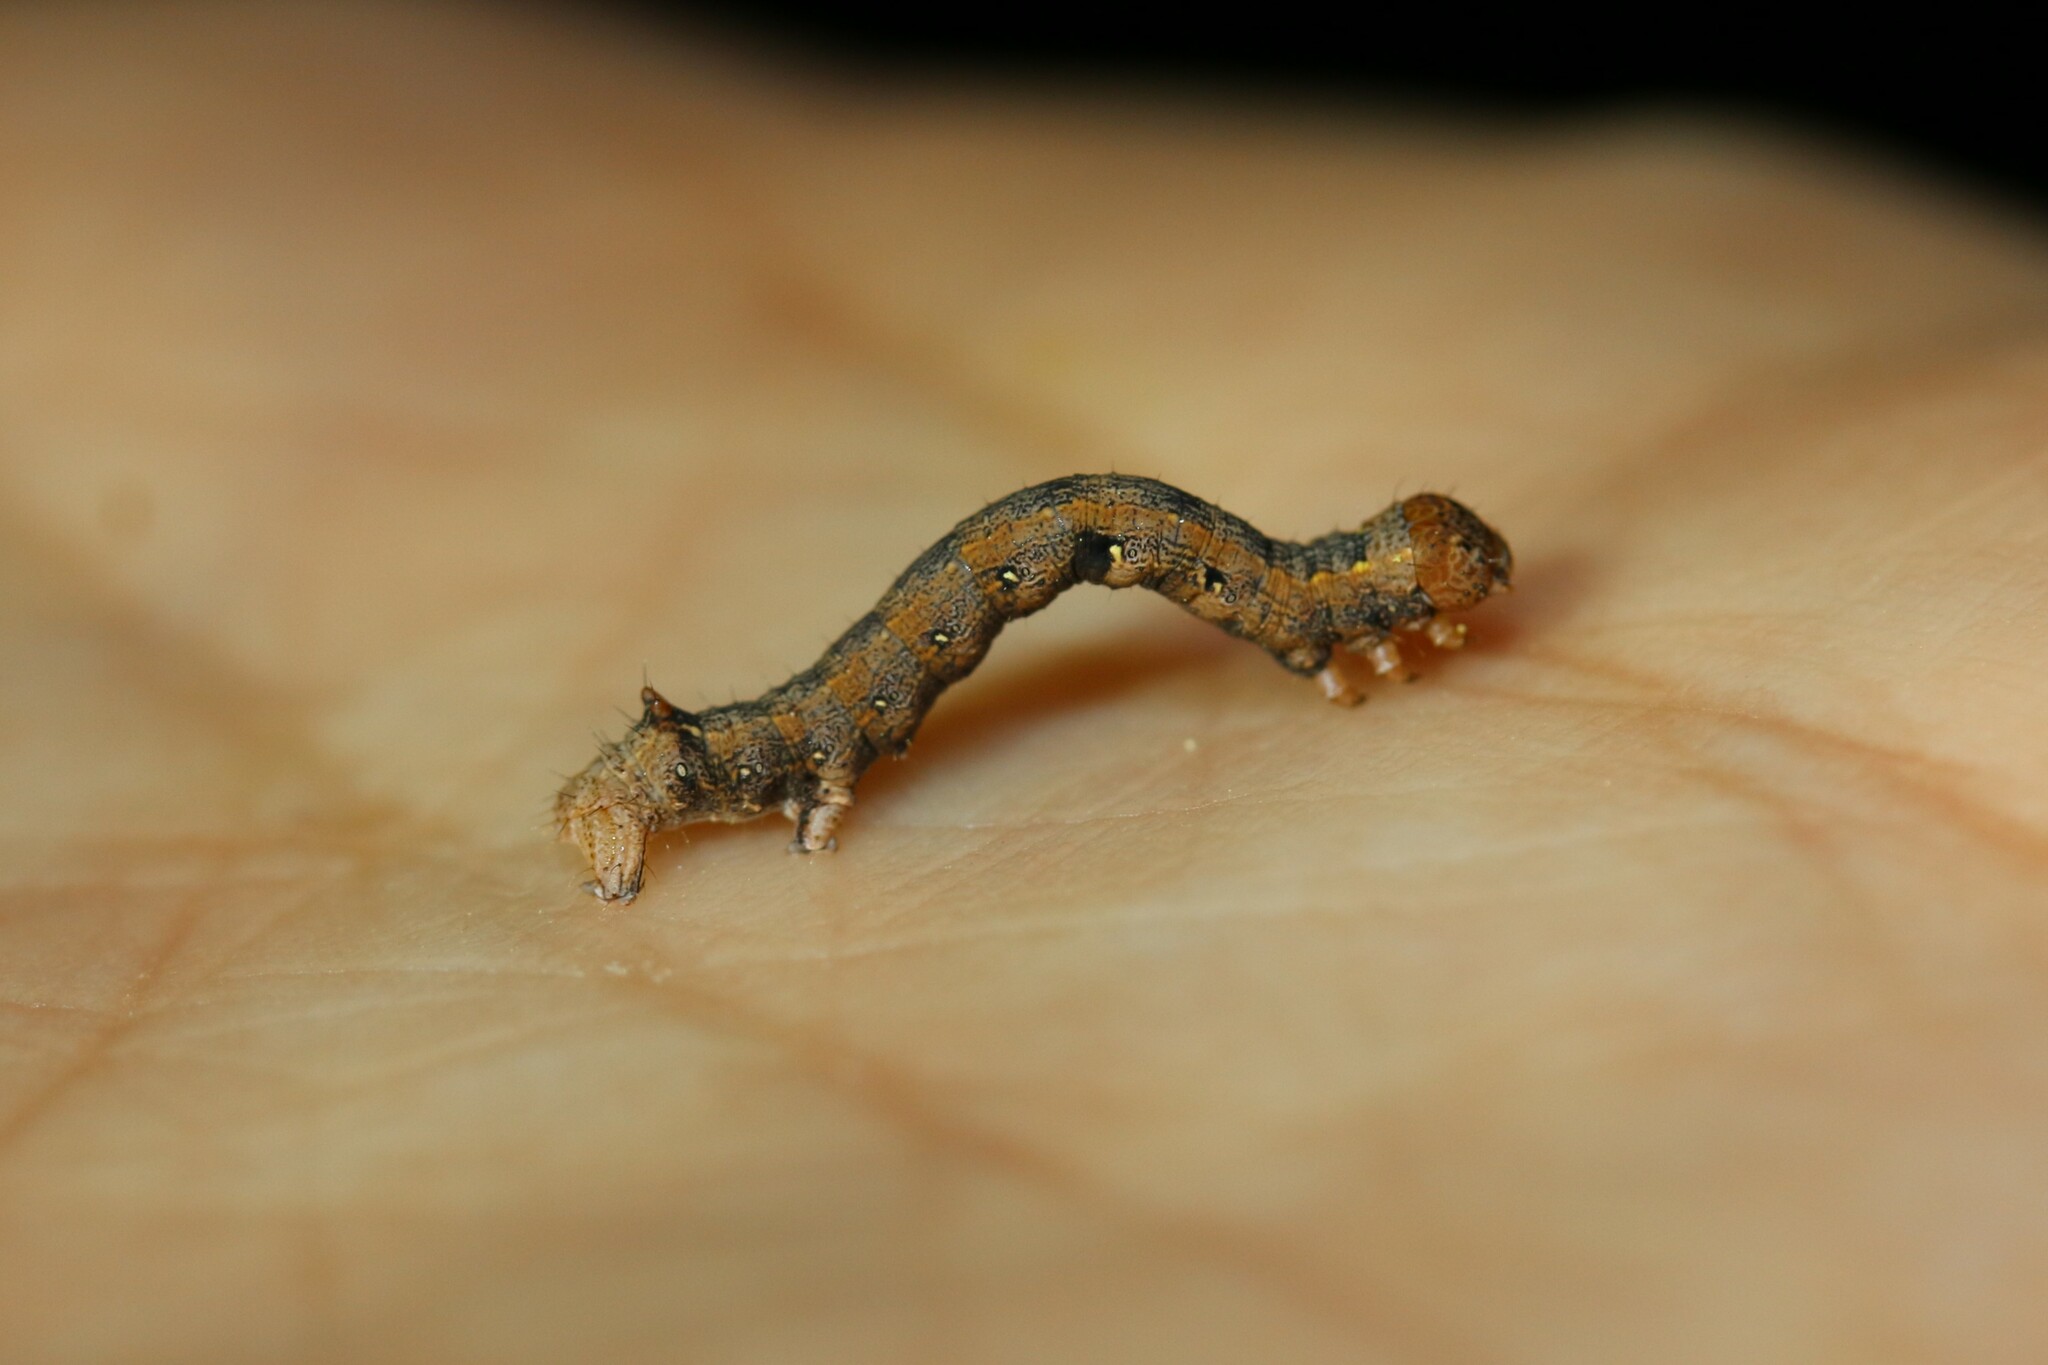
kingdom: Animalia
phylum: Arthropoda
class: Insecta
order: Lepidoptera
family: Geometridae
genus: Colotois
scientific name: Colotois pennaria
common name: Feathered thorn
